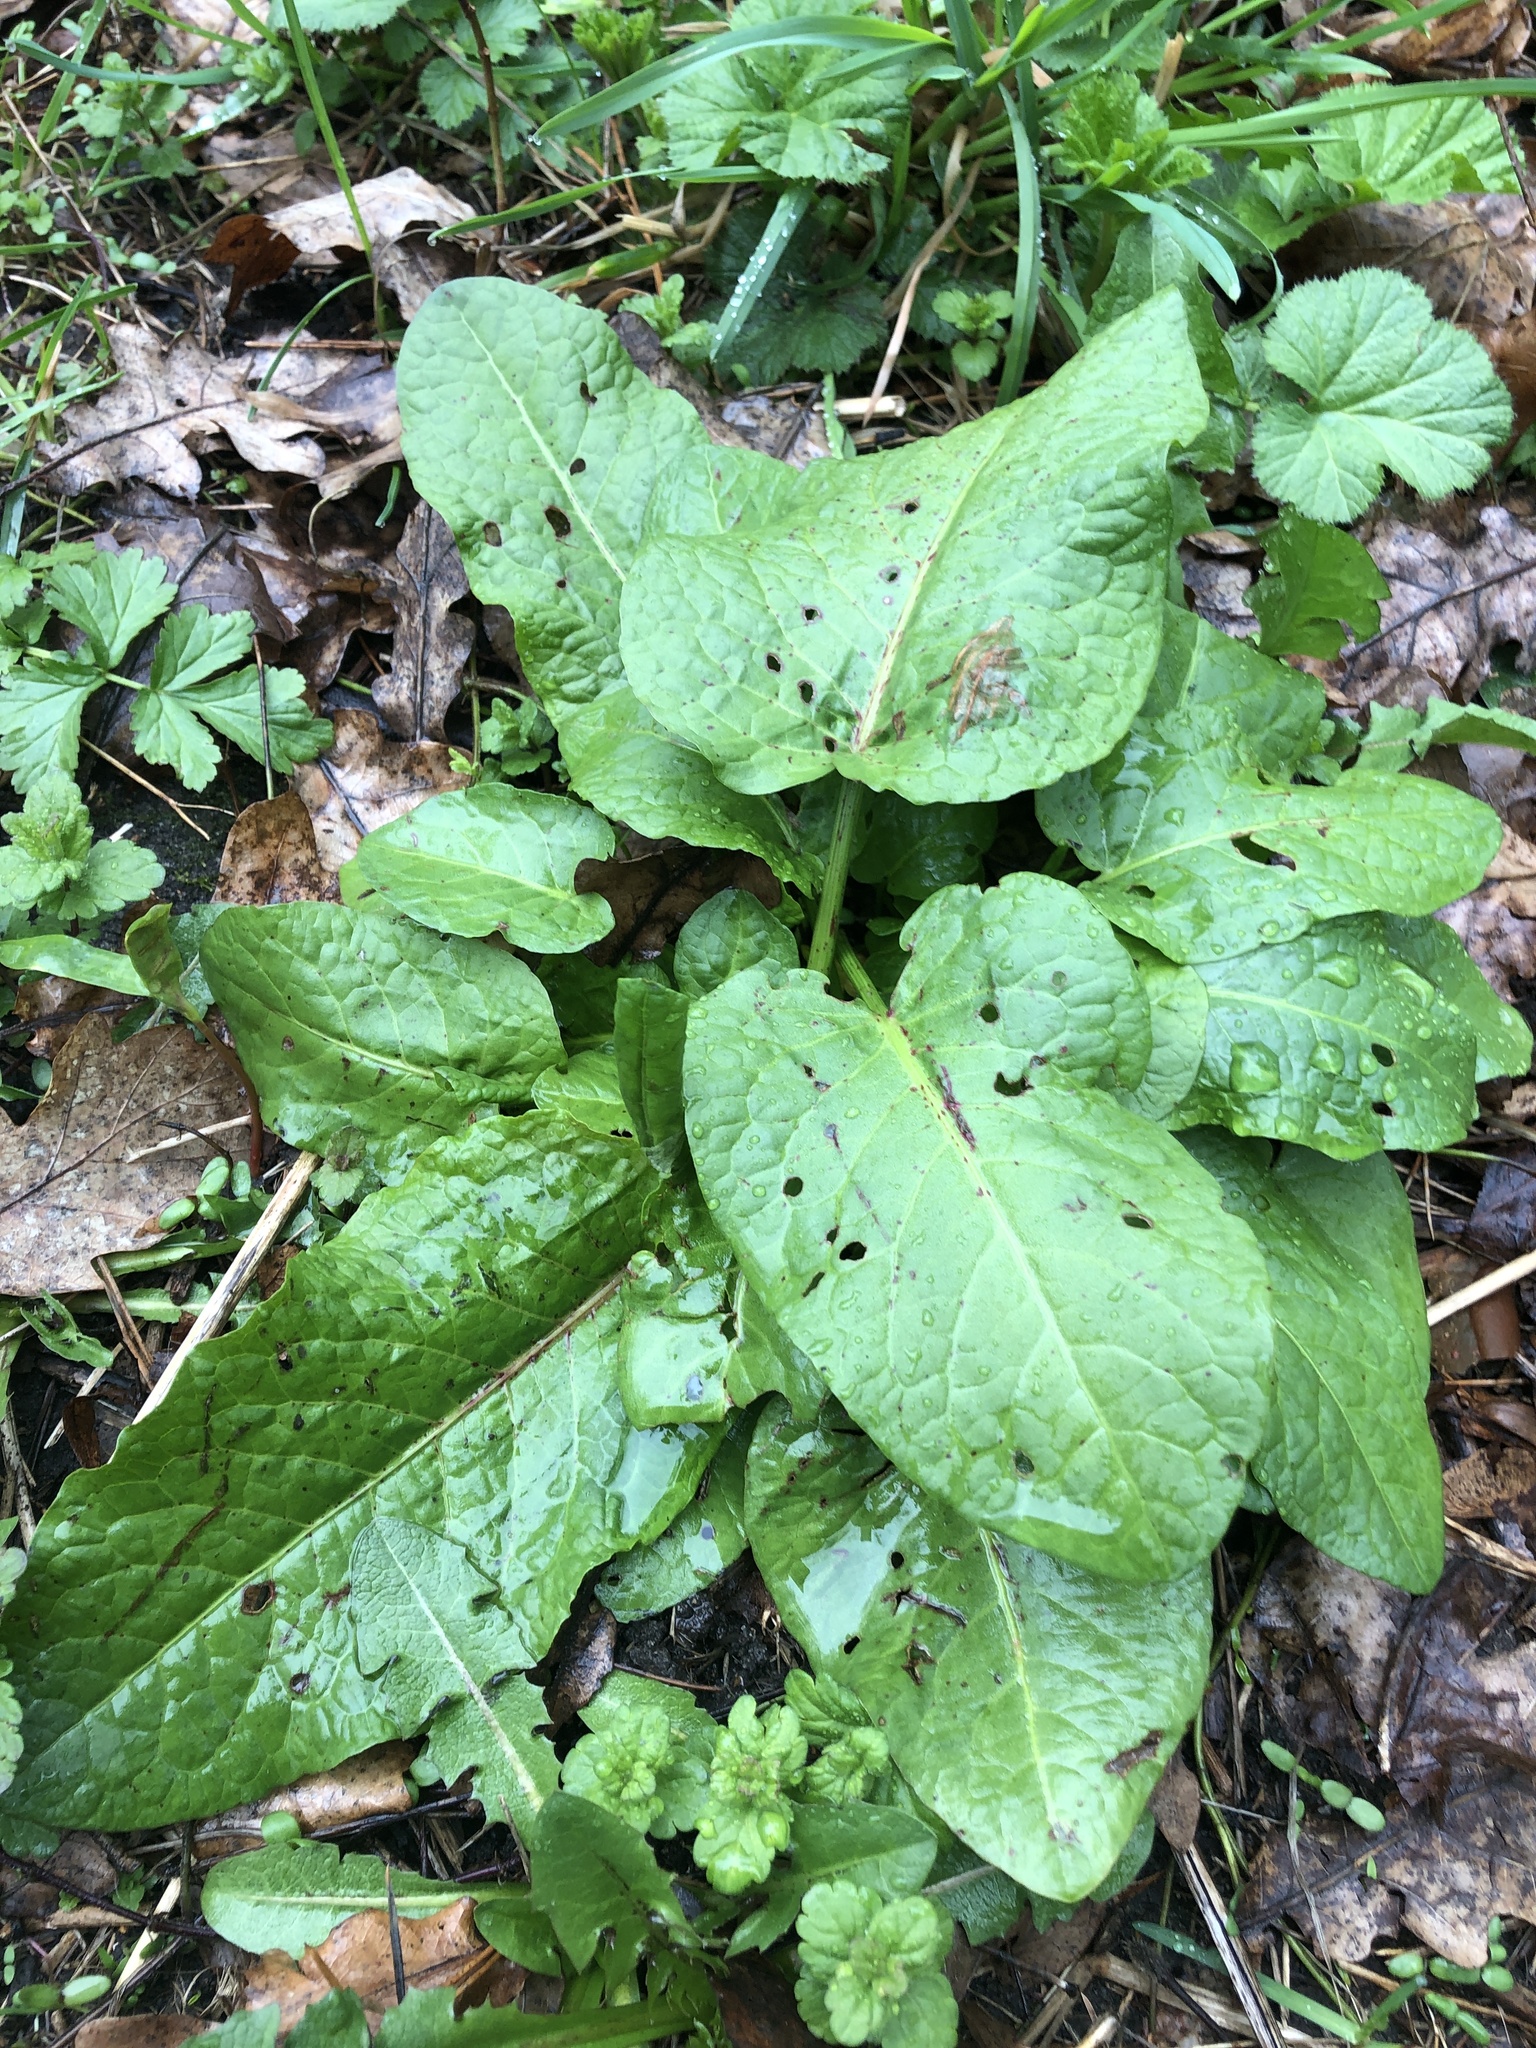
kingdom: Plantae
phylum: Tracheophyta
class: Magnoliopsida
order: Caryophyllales
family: Polygonaceae
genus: Rumex
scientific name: Rumex obtusifolius
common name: Bitter dock
